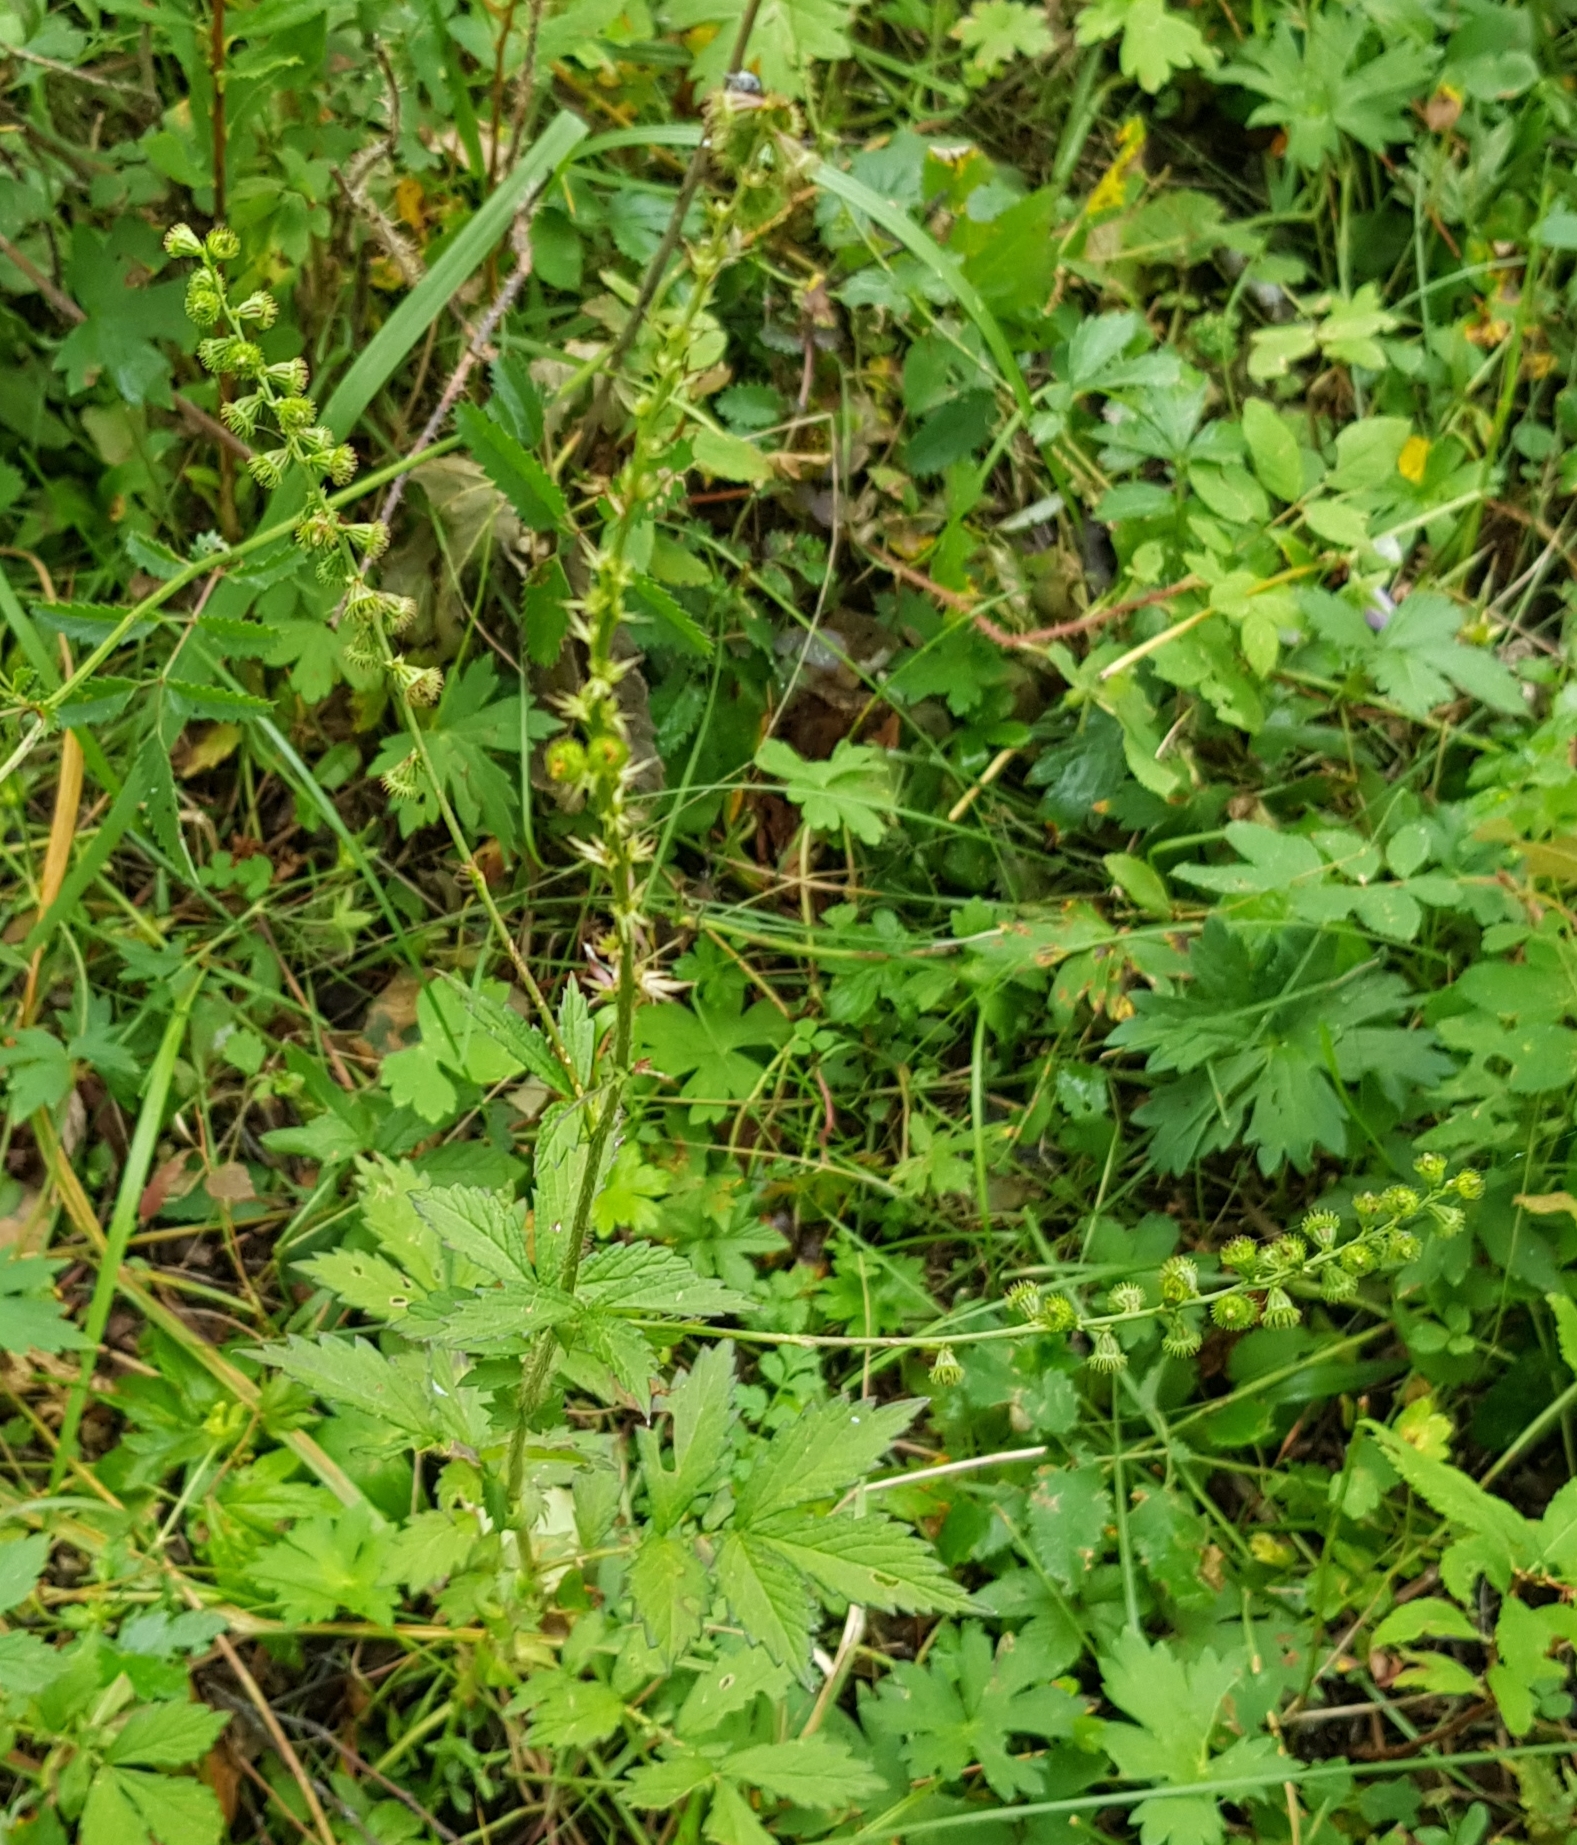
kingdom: Plantae
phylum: Tracheophyta
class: Magnoliopsida
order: Rosales
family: Rosaceae
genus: Agrimonia
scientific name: Agrimonia pilosa
